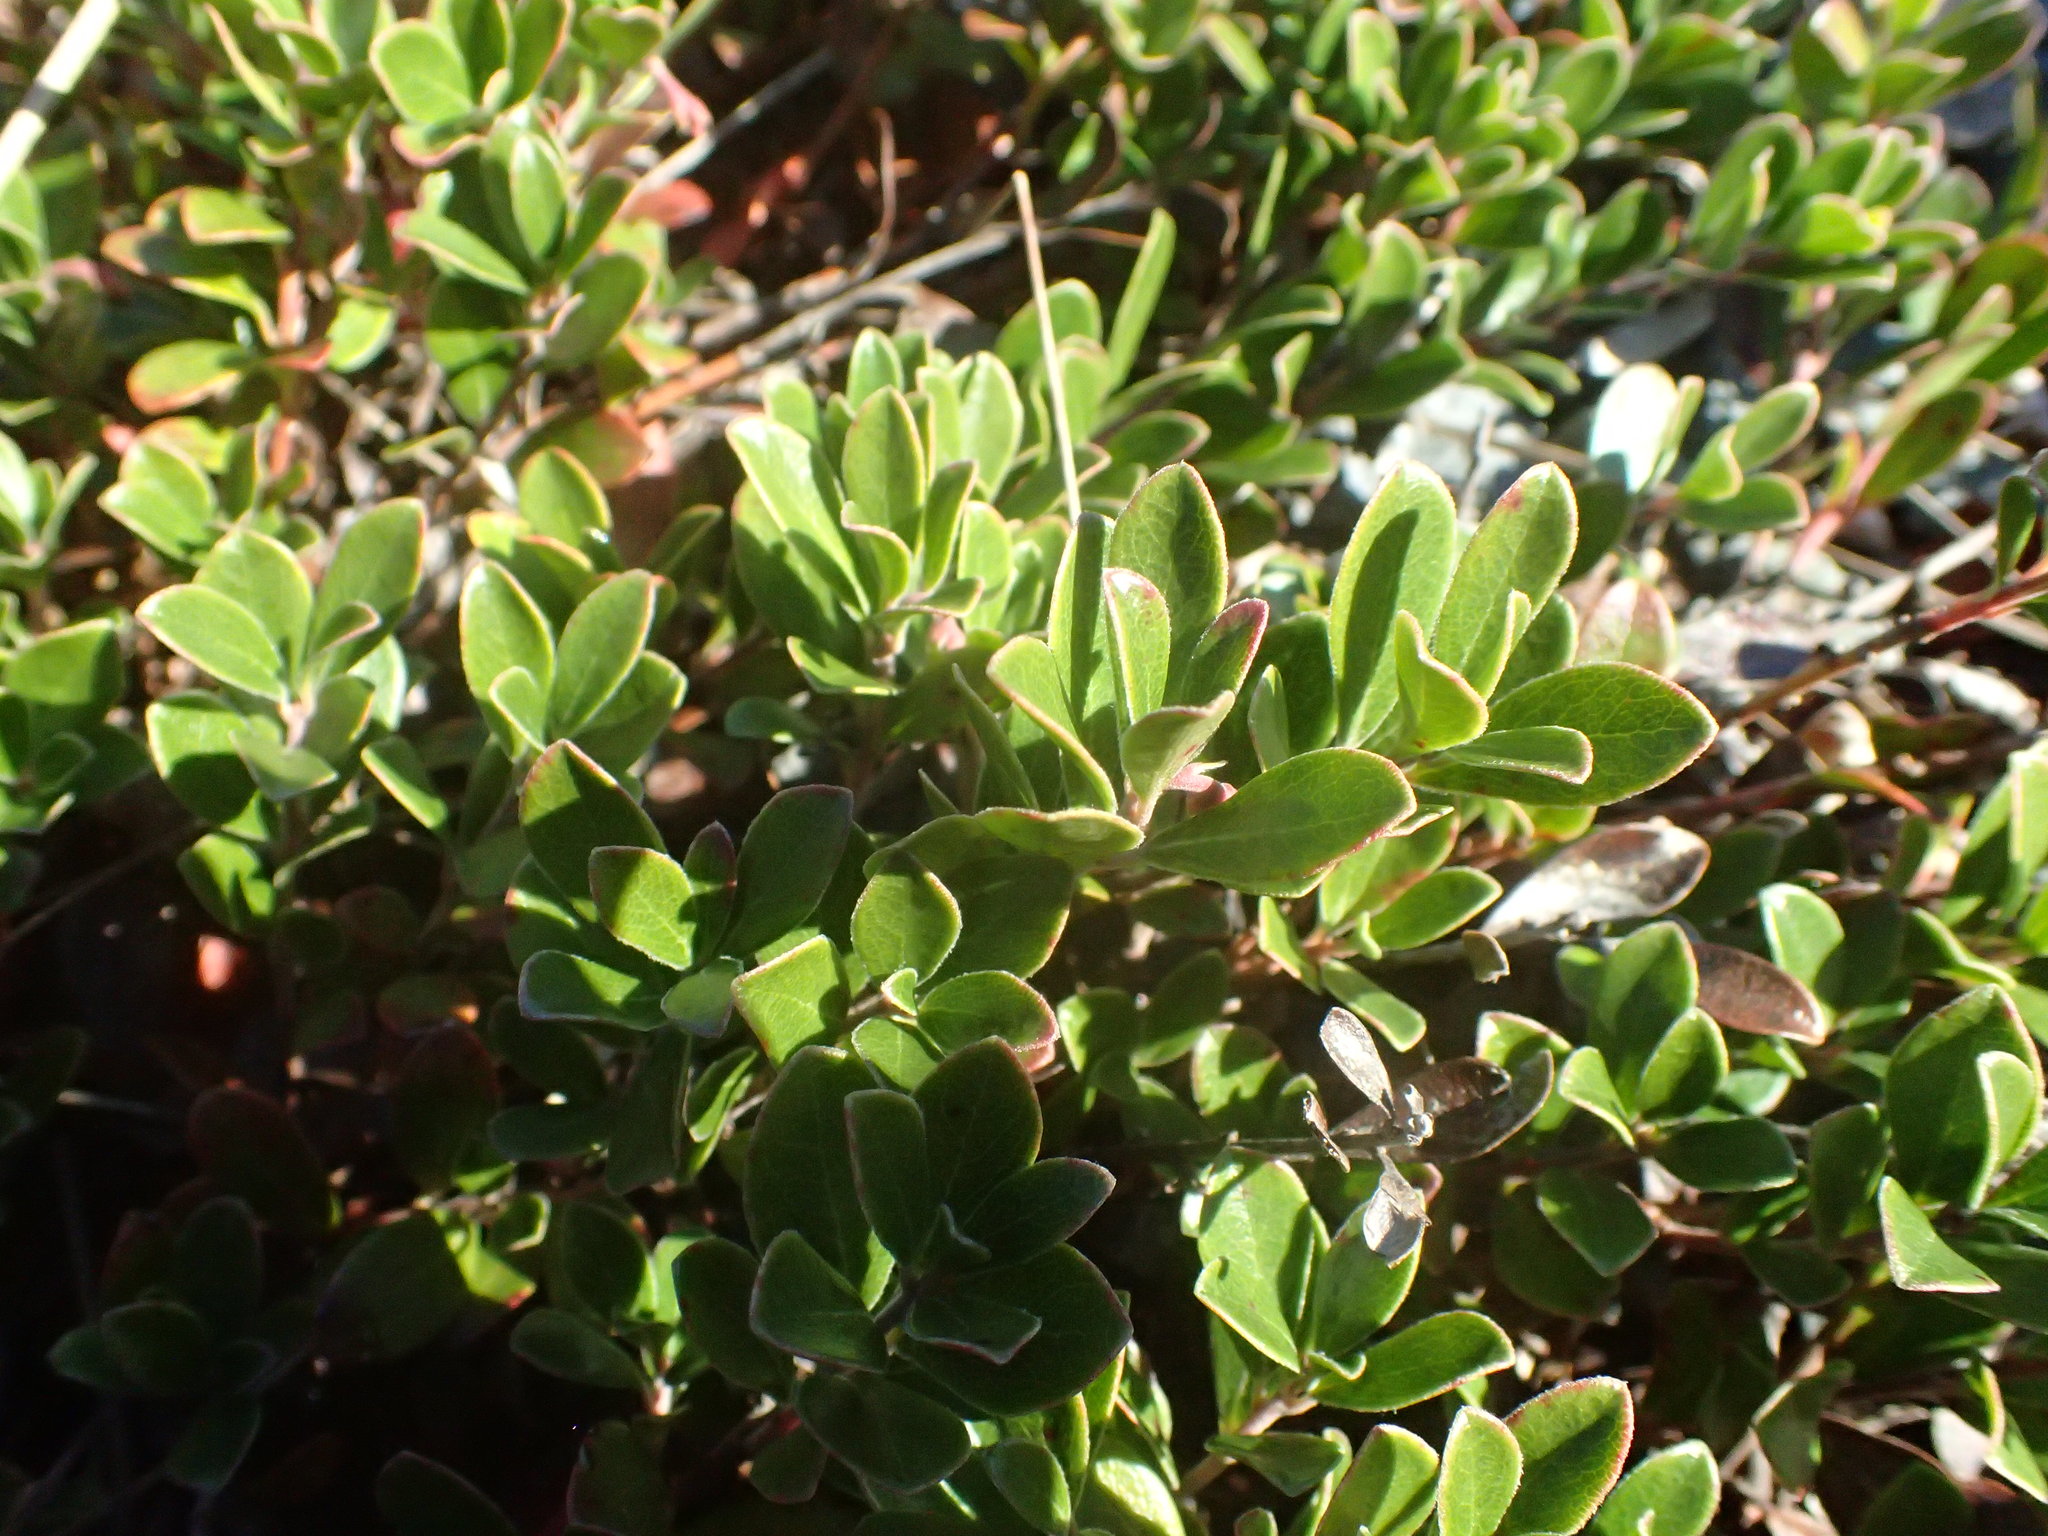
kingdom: Plantae
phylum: Tracheophyta
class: Magnoliopsida
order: Ericales
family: Ericaceae
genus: Arctostaphylos
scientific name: Arctostaphylos uva-ursi
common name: Bearberry
